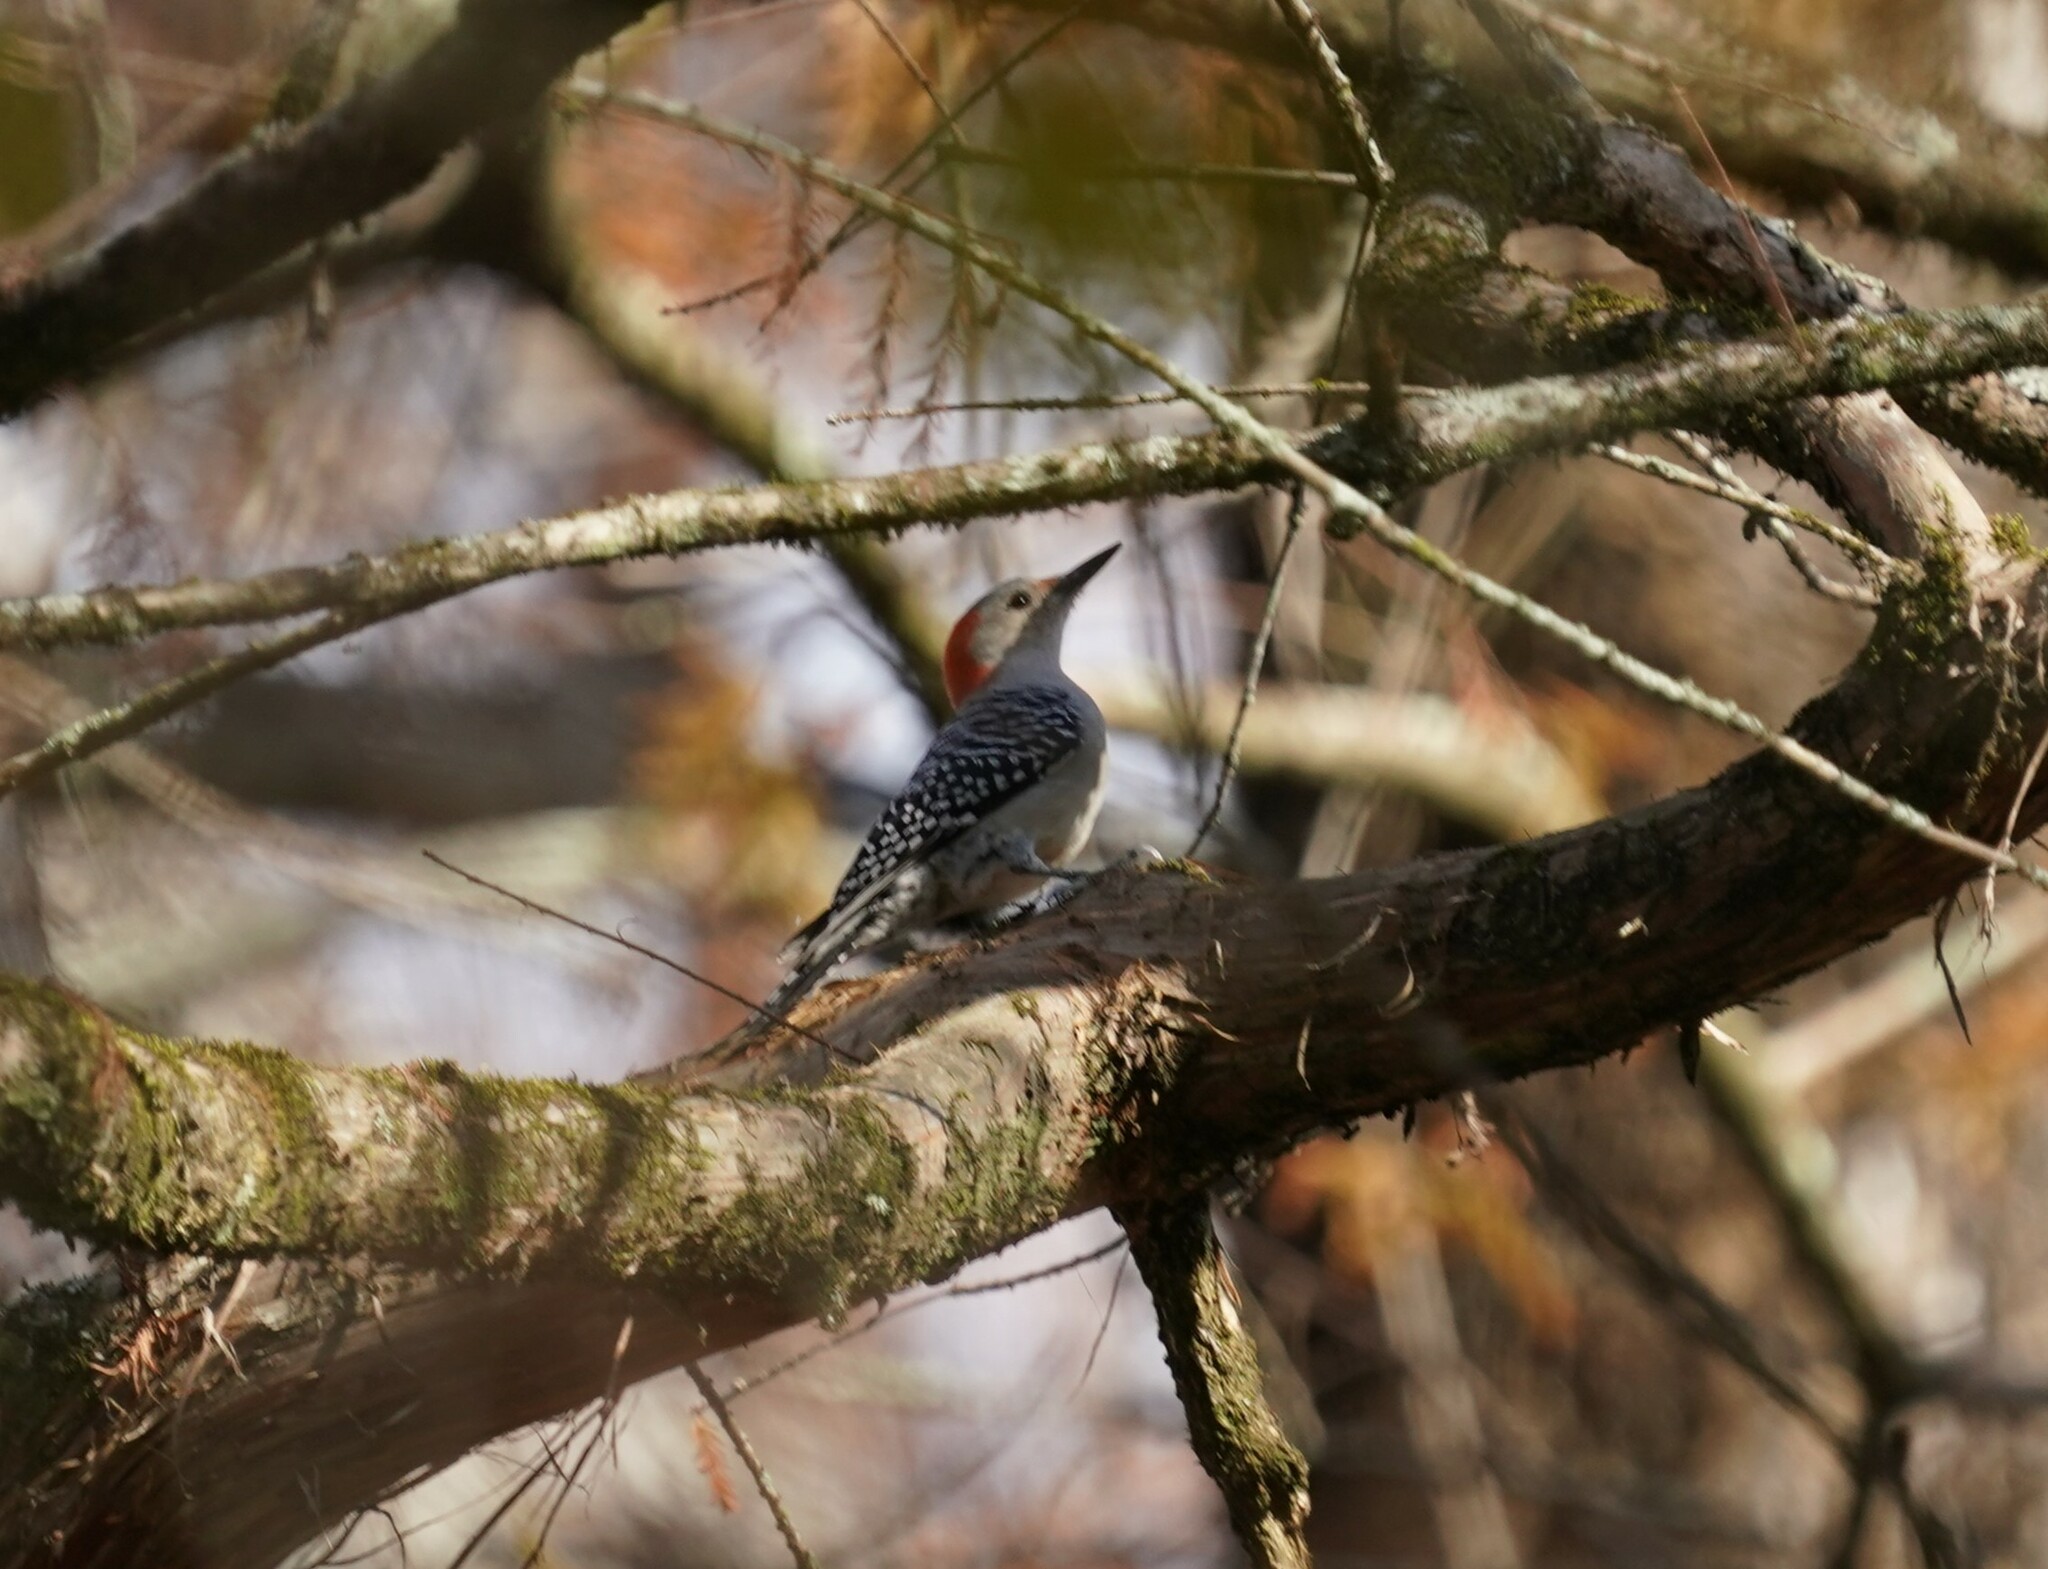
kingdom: Animalia
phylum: Chordata
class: Aves
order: Piciformes
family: Picidae
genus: Melanerpes
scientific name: Melanerpes carolinus
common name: Red-bellied woodpecker
